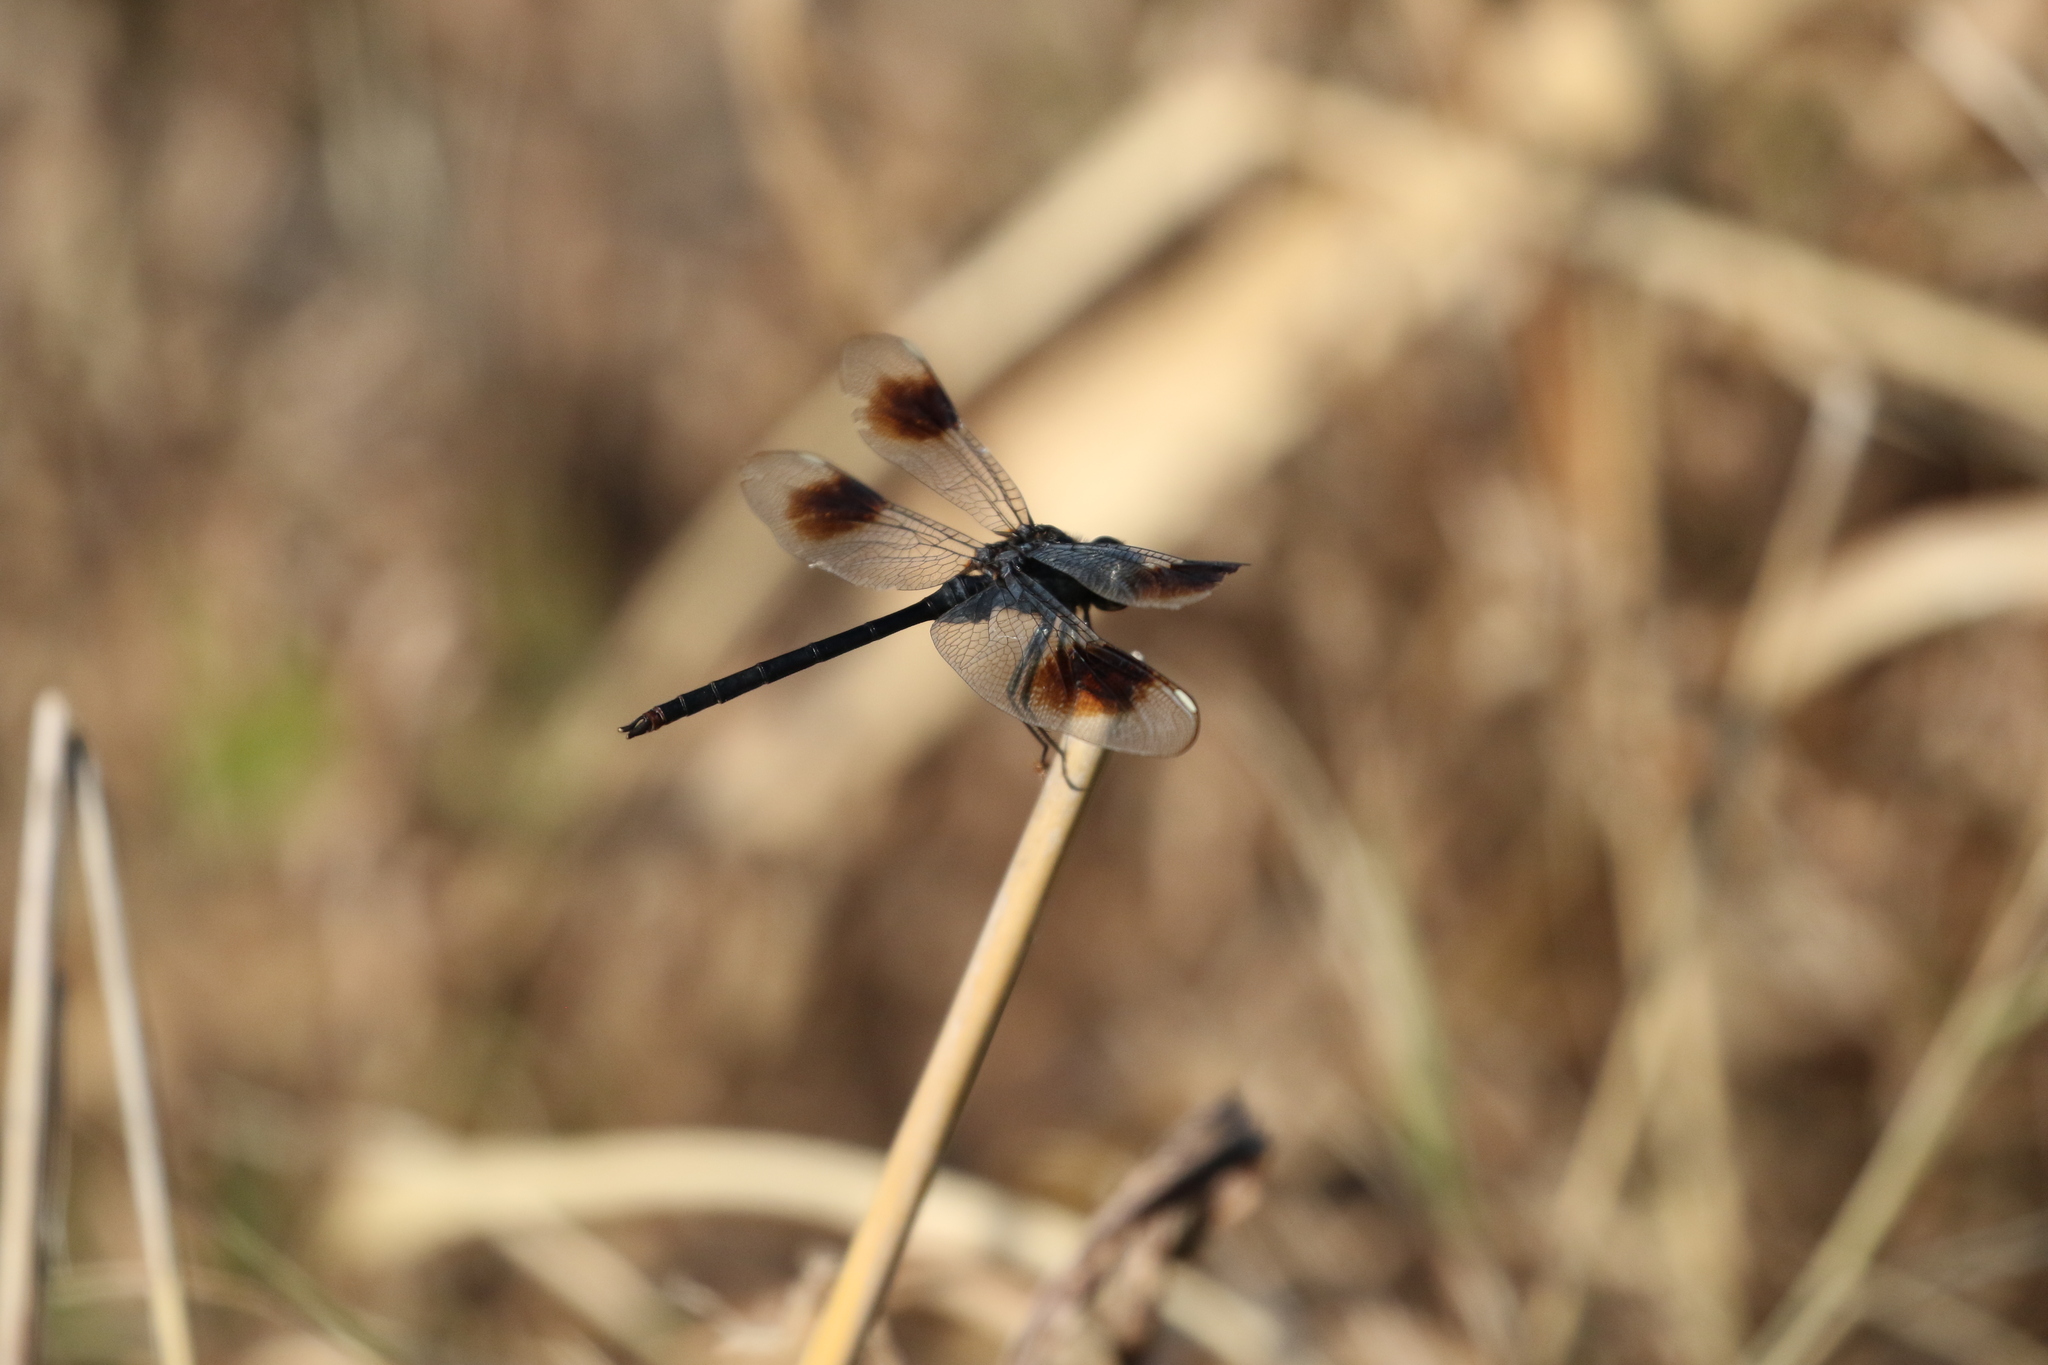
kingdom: Animalia
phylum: Arthropoda
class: Insecta
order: Odonata
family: Libellulidae
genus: Brachymesia
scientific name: Brachymesia gravida
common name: Four-spotted pennant
